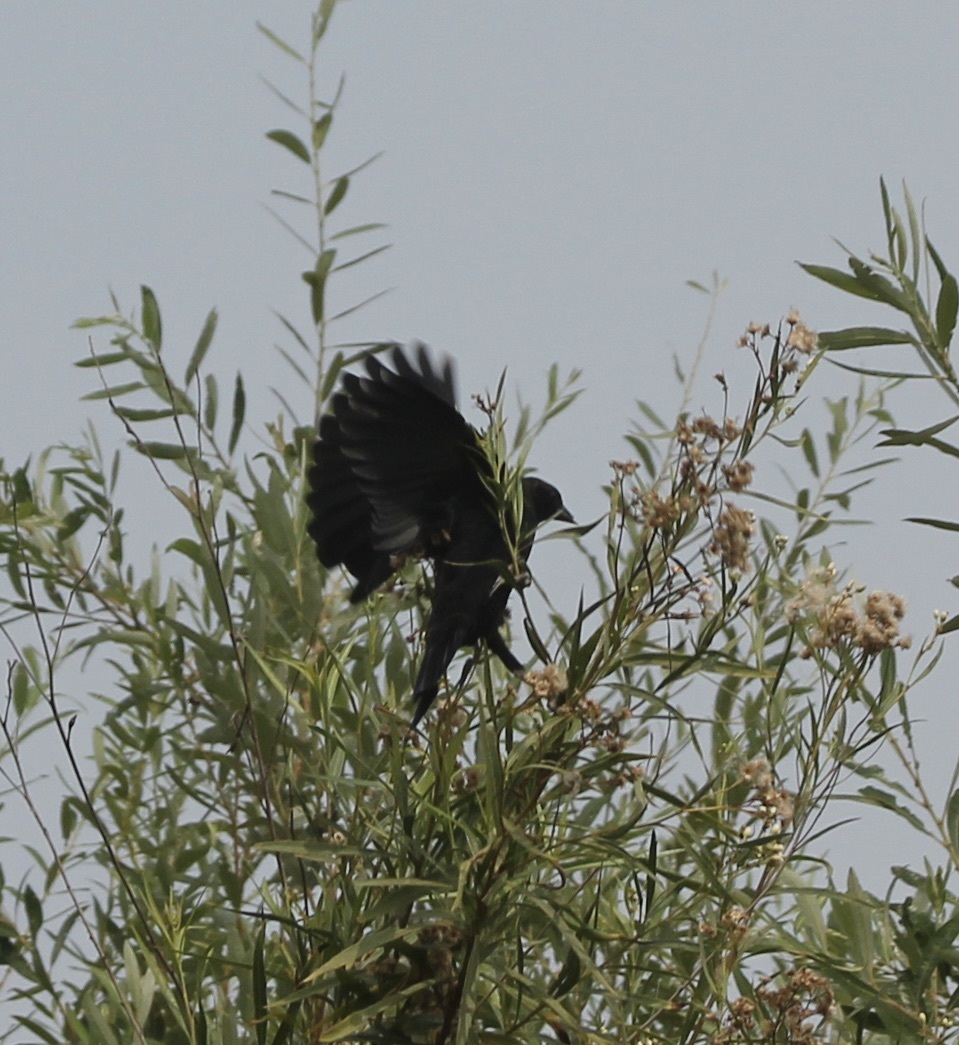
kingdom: Animalia
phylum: Chordata
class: Aves
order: Passeriformes
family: Icteridae
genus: Agelaius
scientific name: Agelaius phoeniceus
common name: Red-winged blackbird
